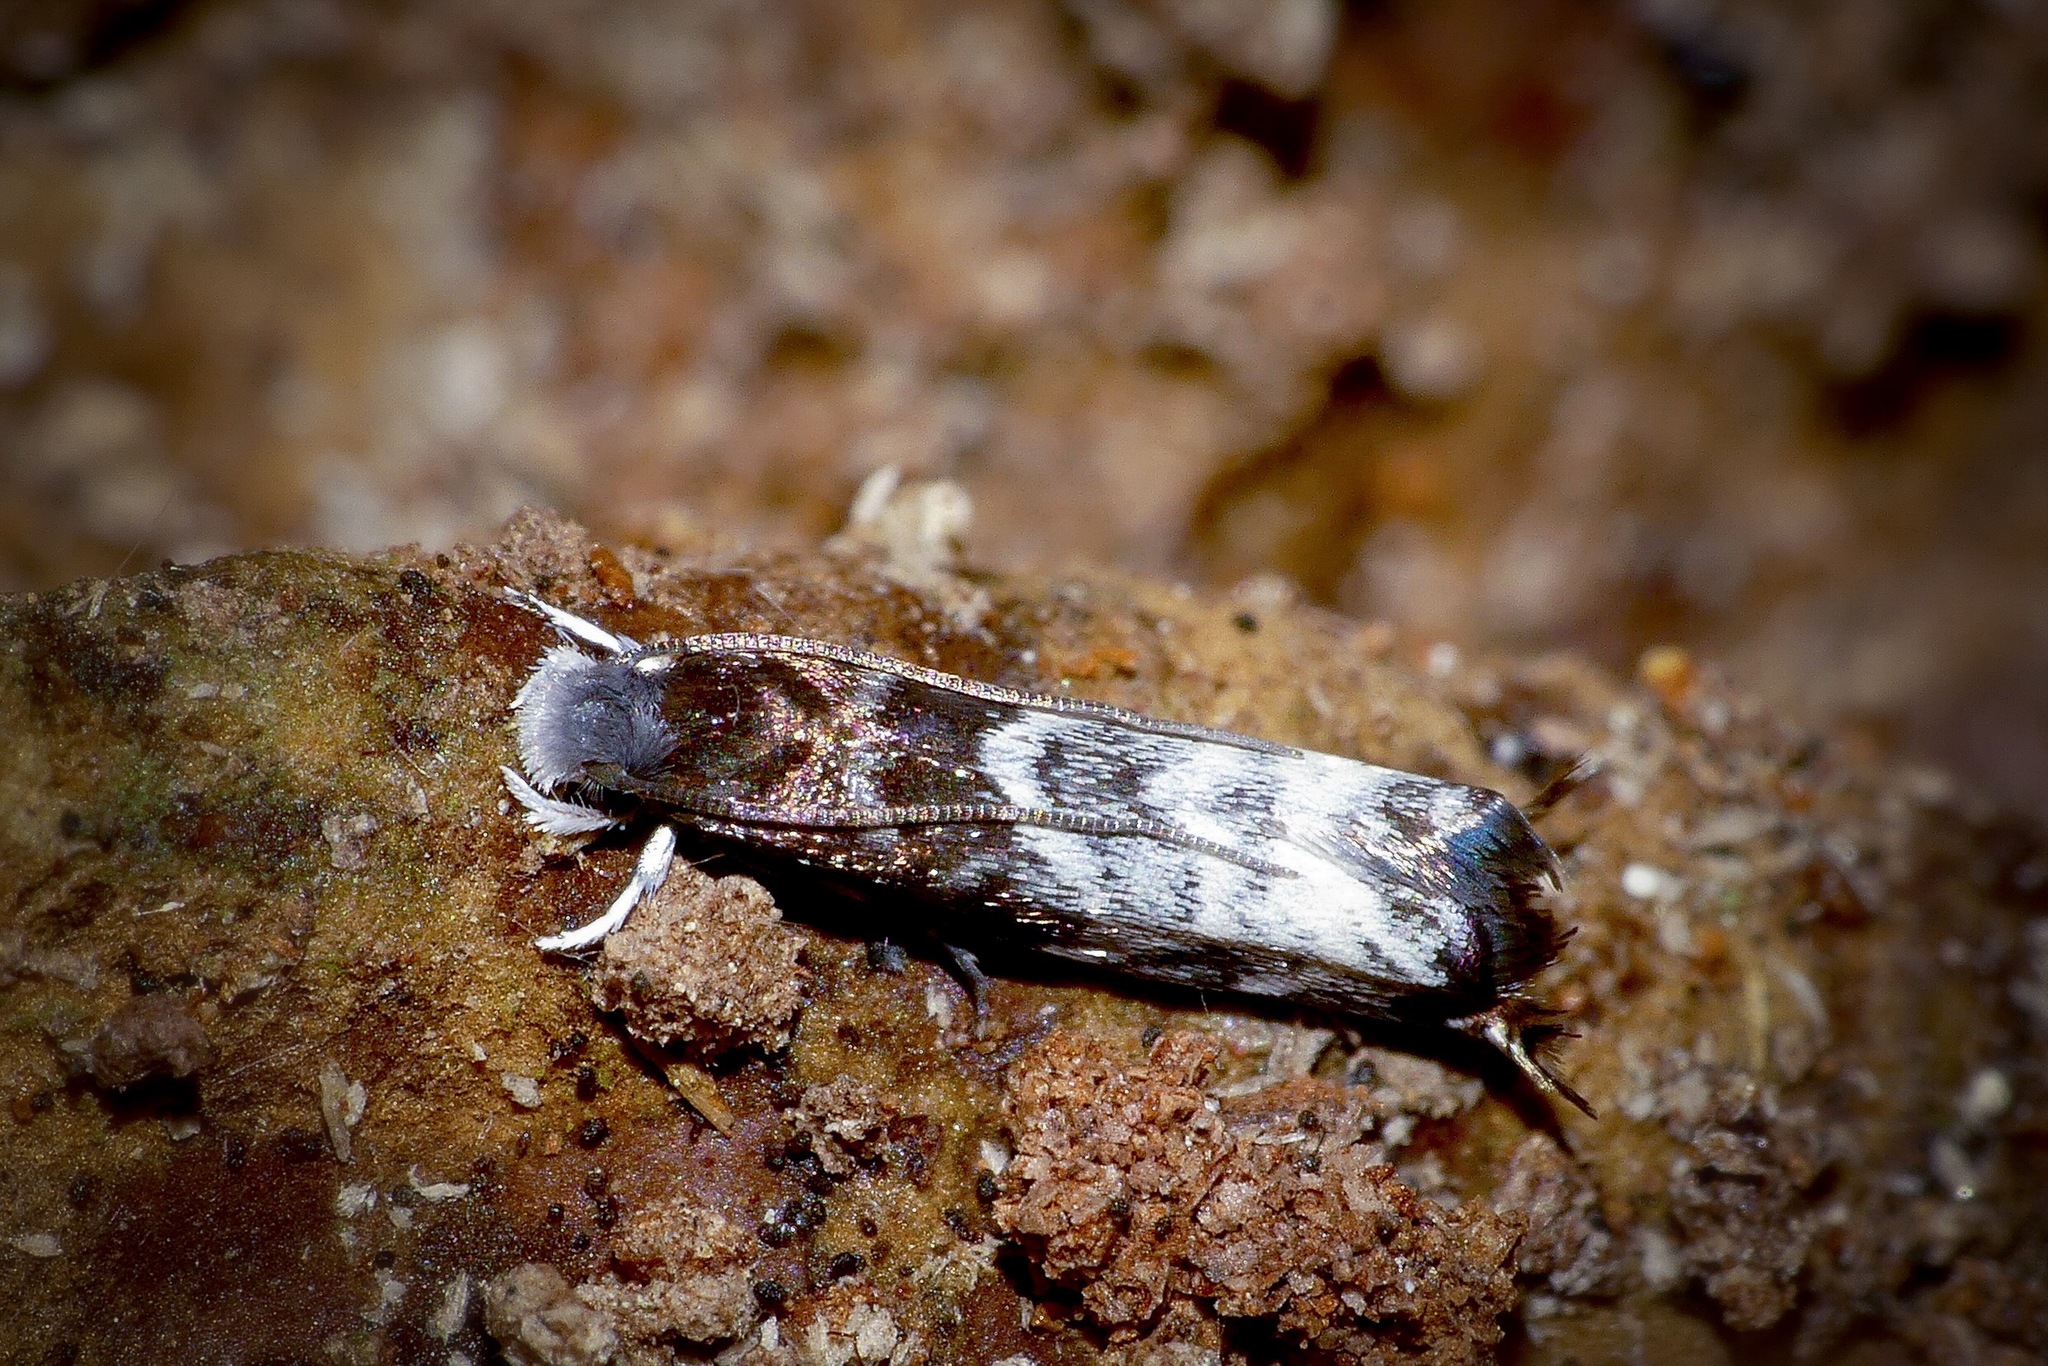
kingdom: Animalia
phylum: Arthropoda
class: Insecta
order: Lepidoptera
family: Tineidae
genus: Eugennaea
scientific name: Eugennaea laquearia
